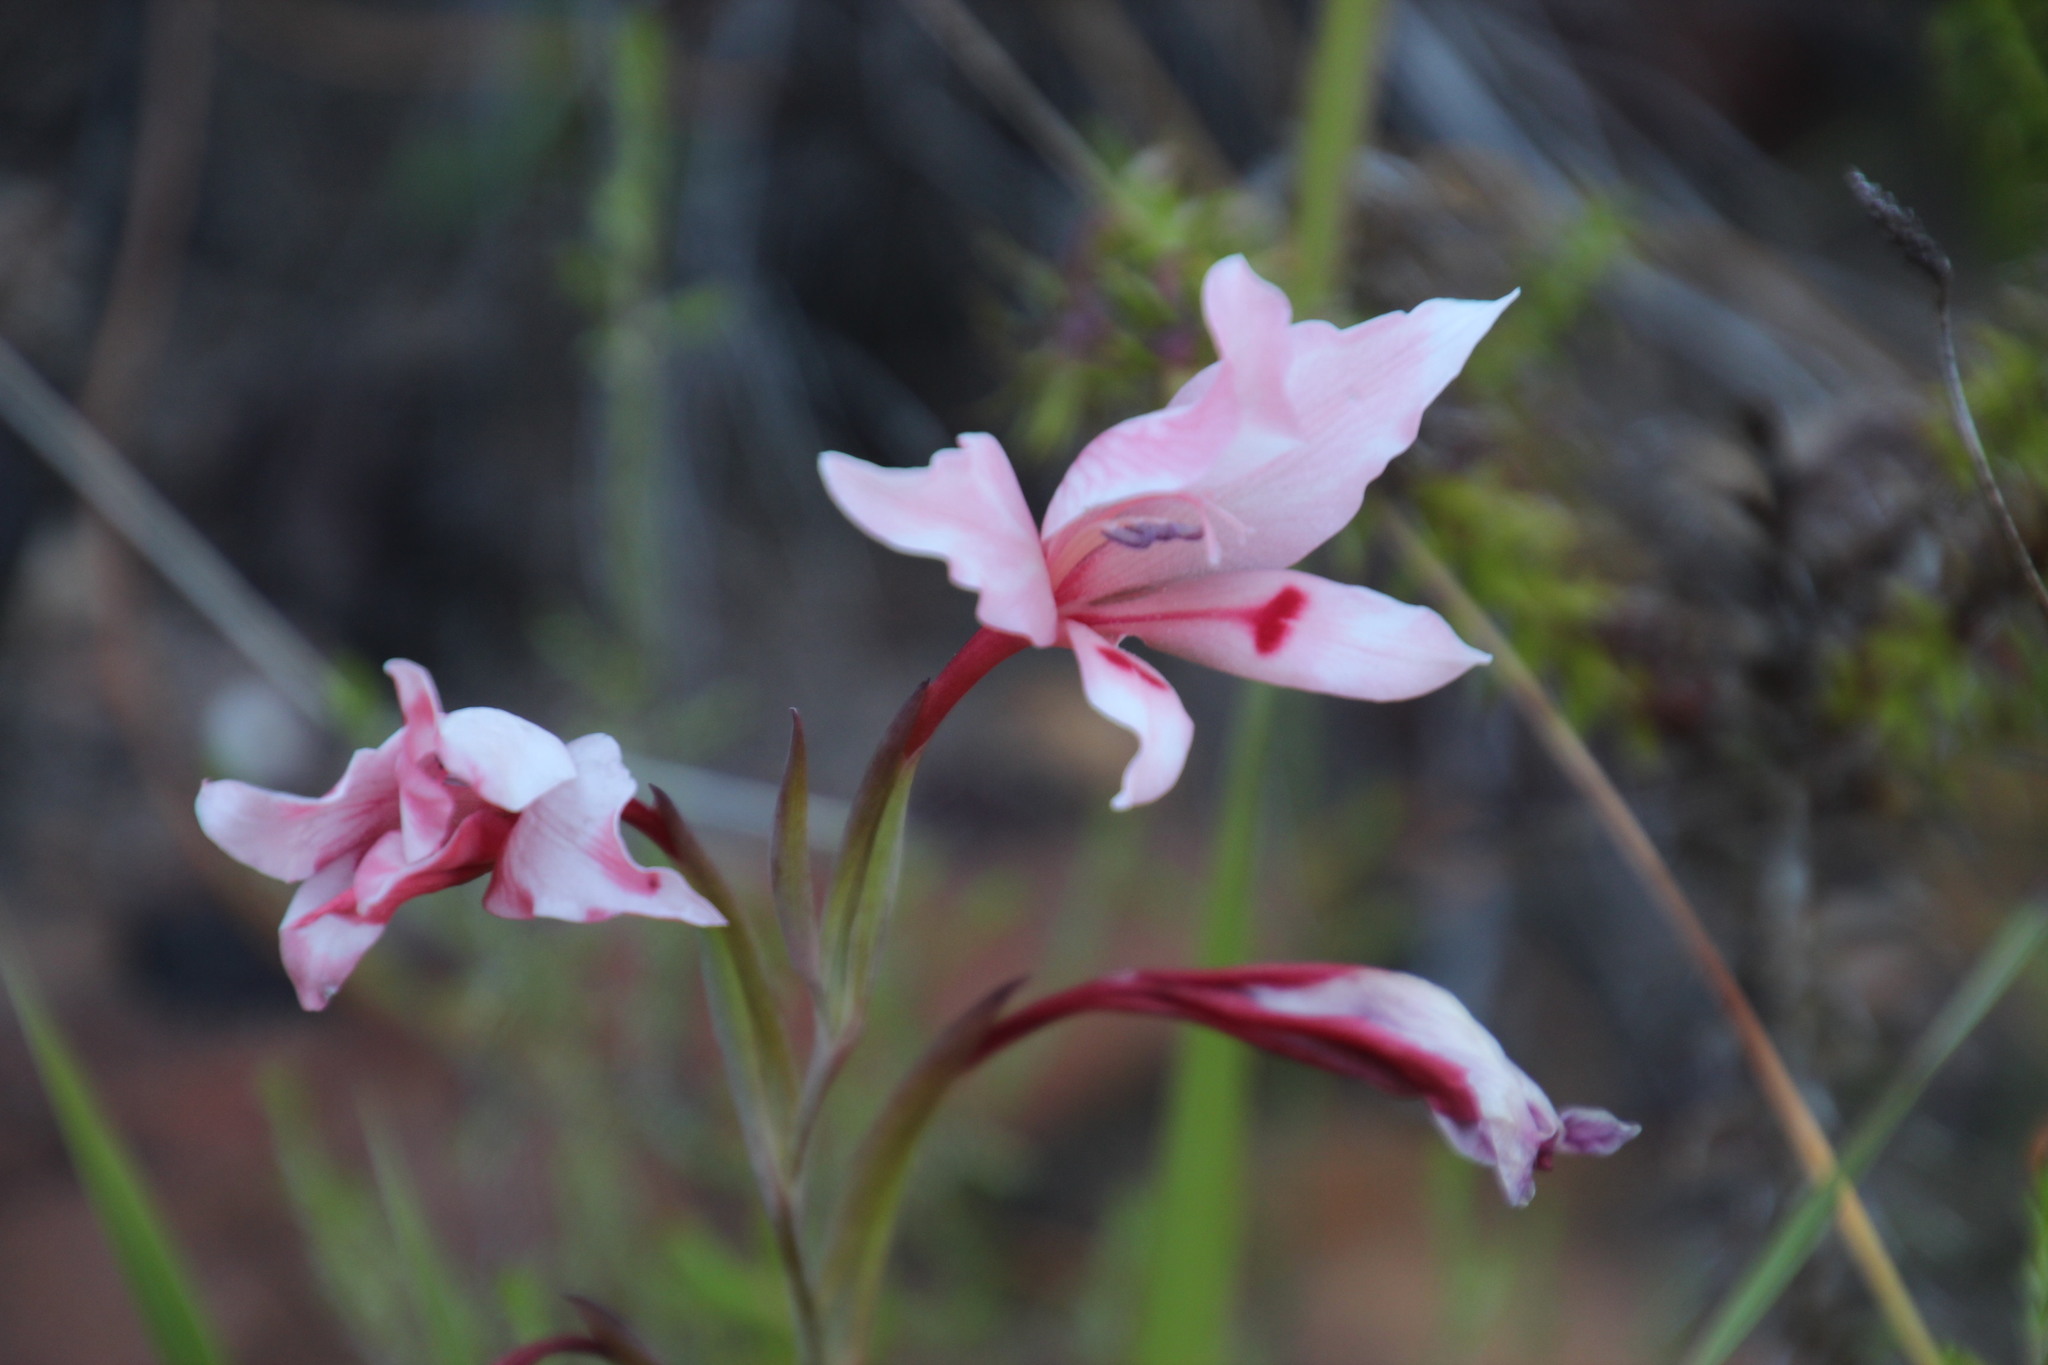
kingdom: Plantae
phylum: Tracheophyta
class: Liliopsida
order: Asparagales
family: Iridaceae
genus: Gladiolus
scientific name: Gladiolus carneus
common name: Painted-lady
